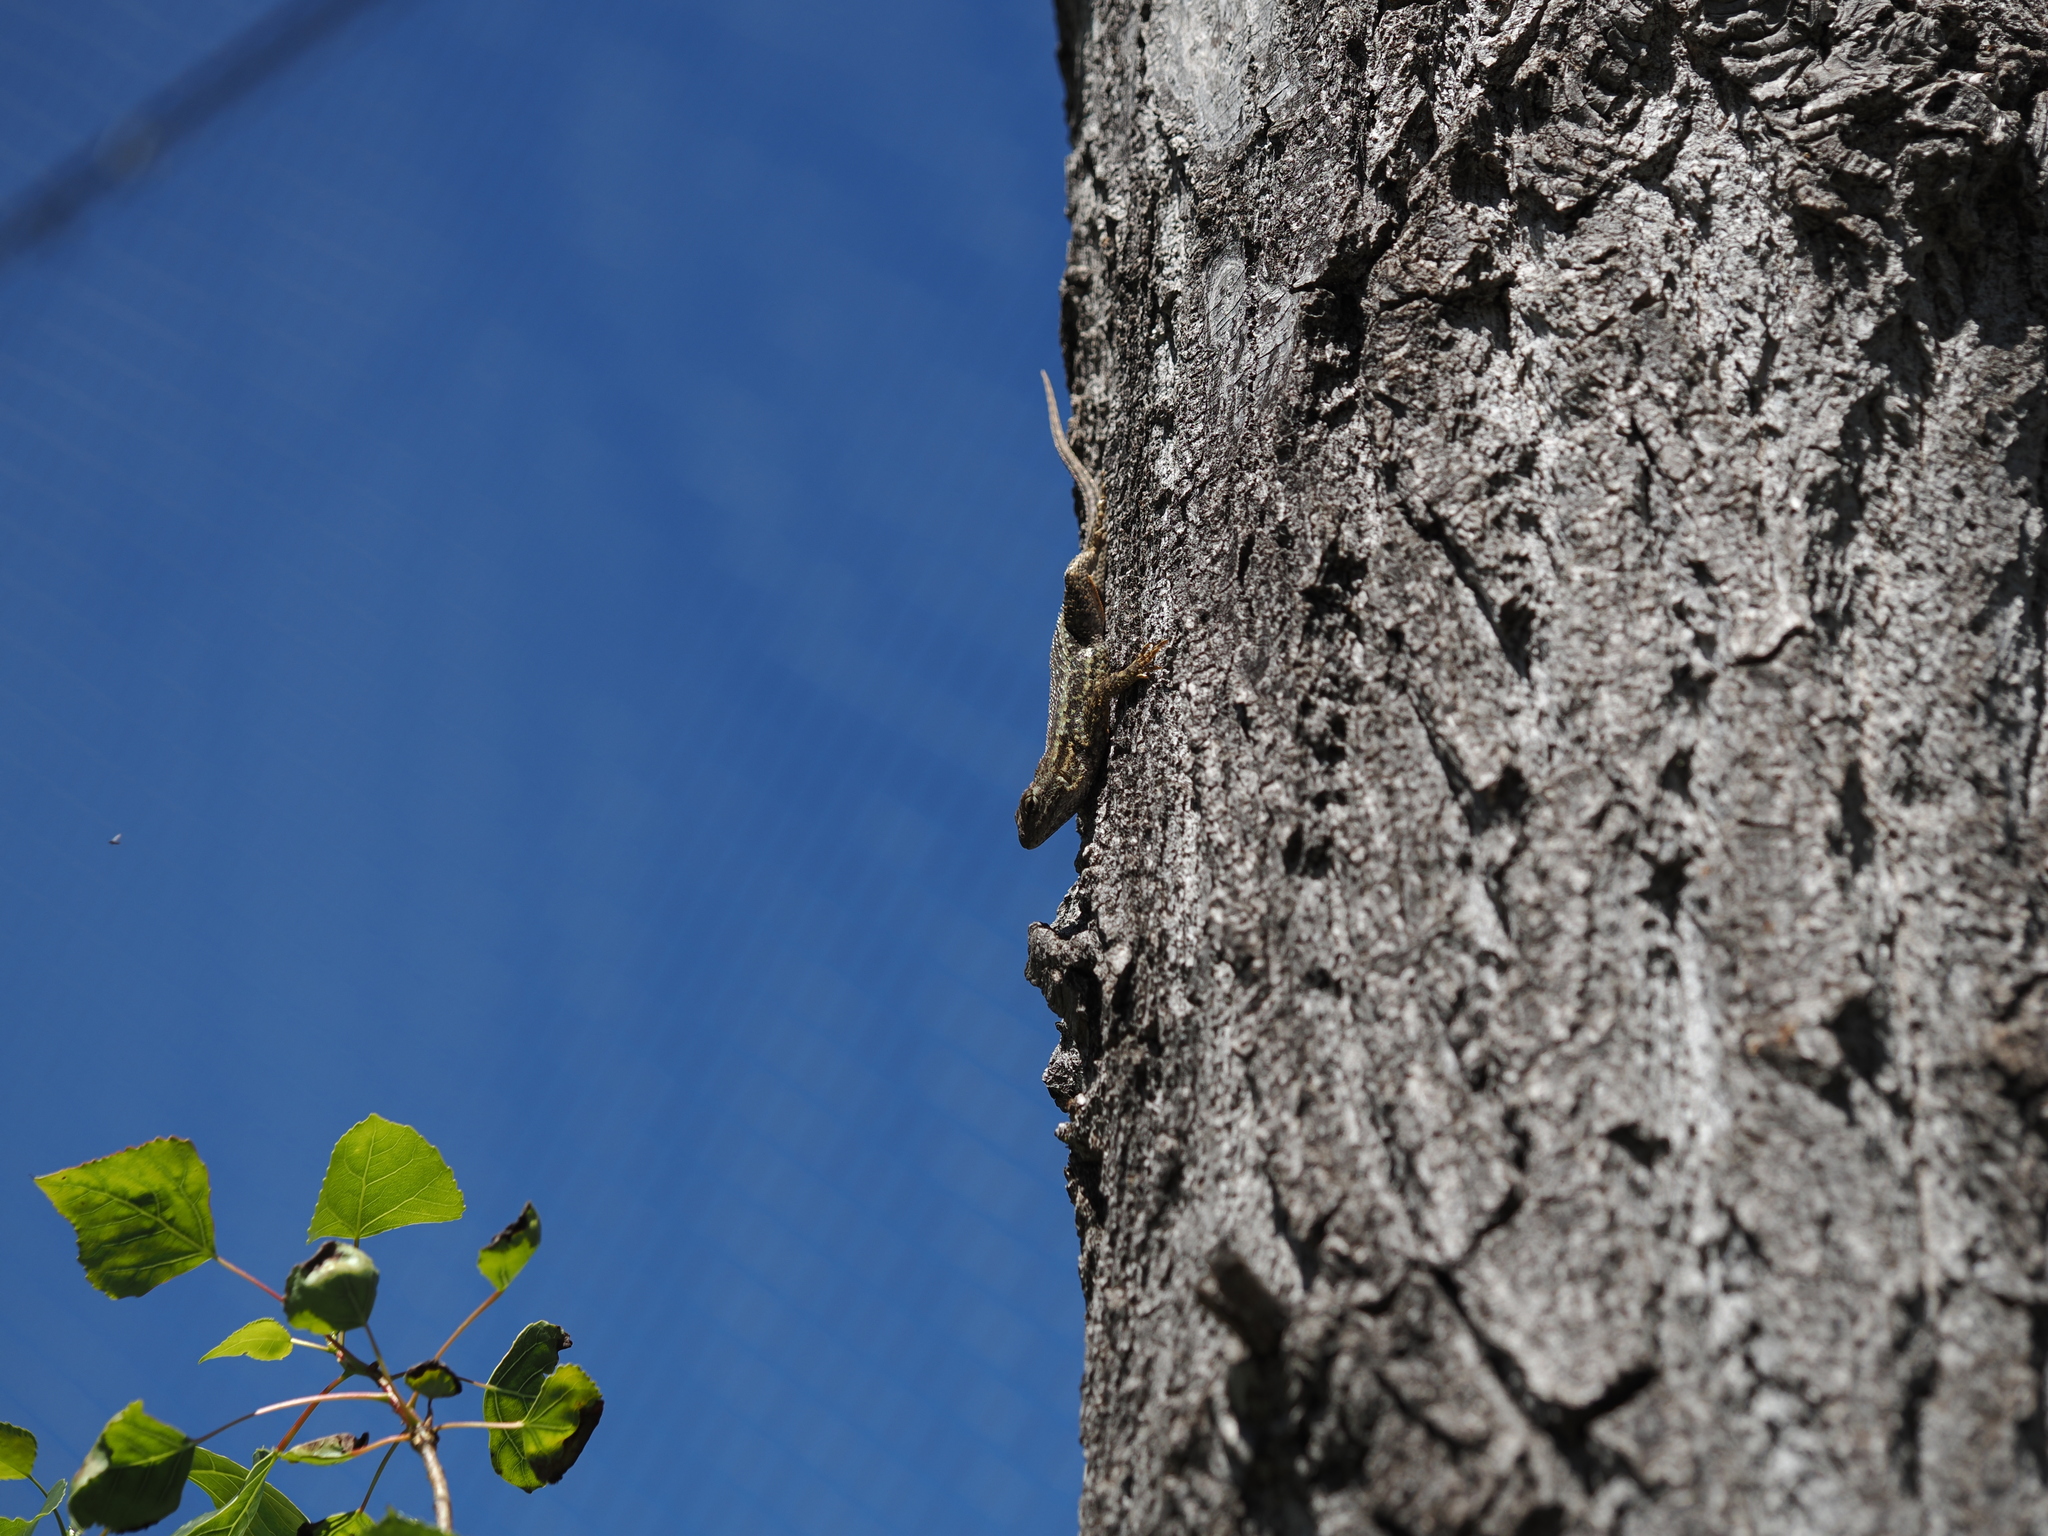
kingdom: Animalia
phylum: Chordata
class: Squamata
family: Phrynosomatidae
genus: Sceloporus
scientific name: Sceloporus occidentalis
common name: Western fence lizard
